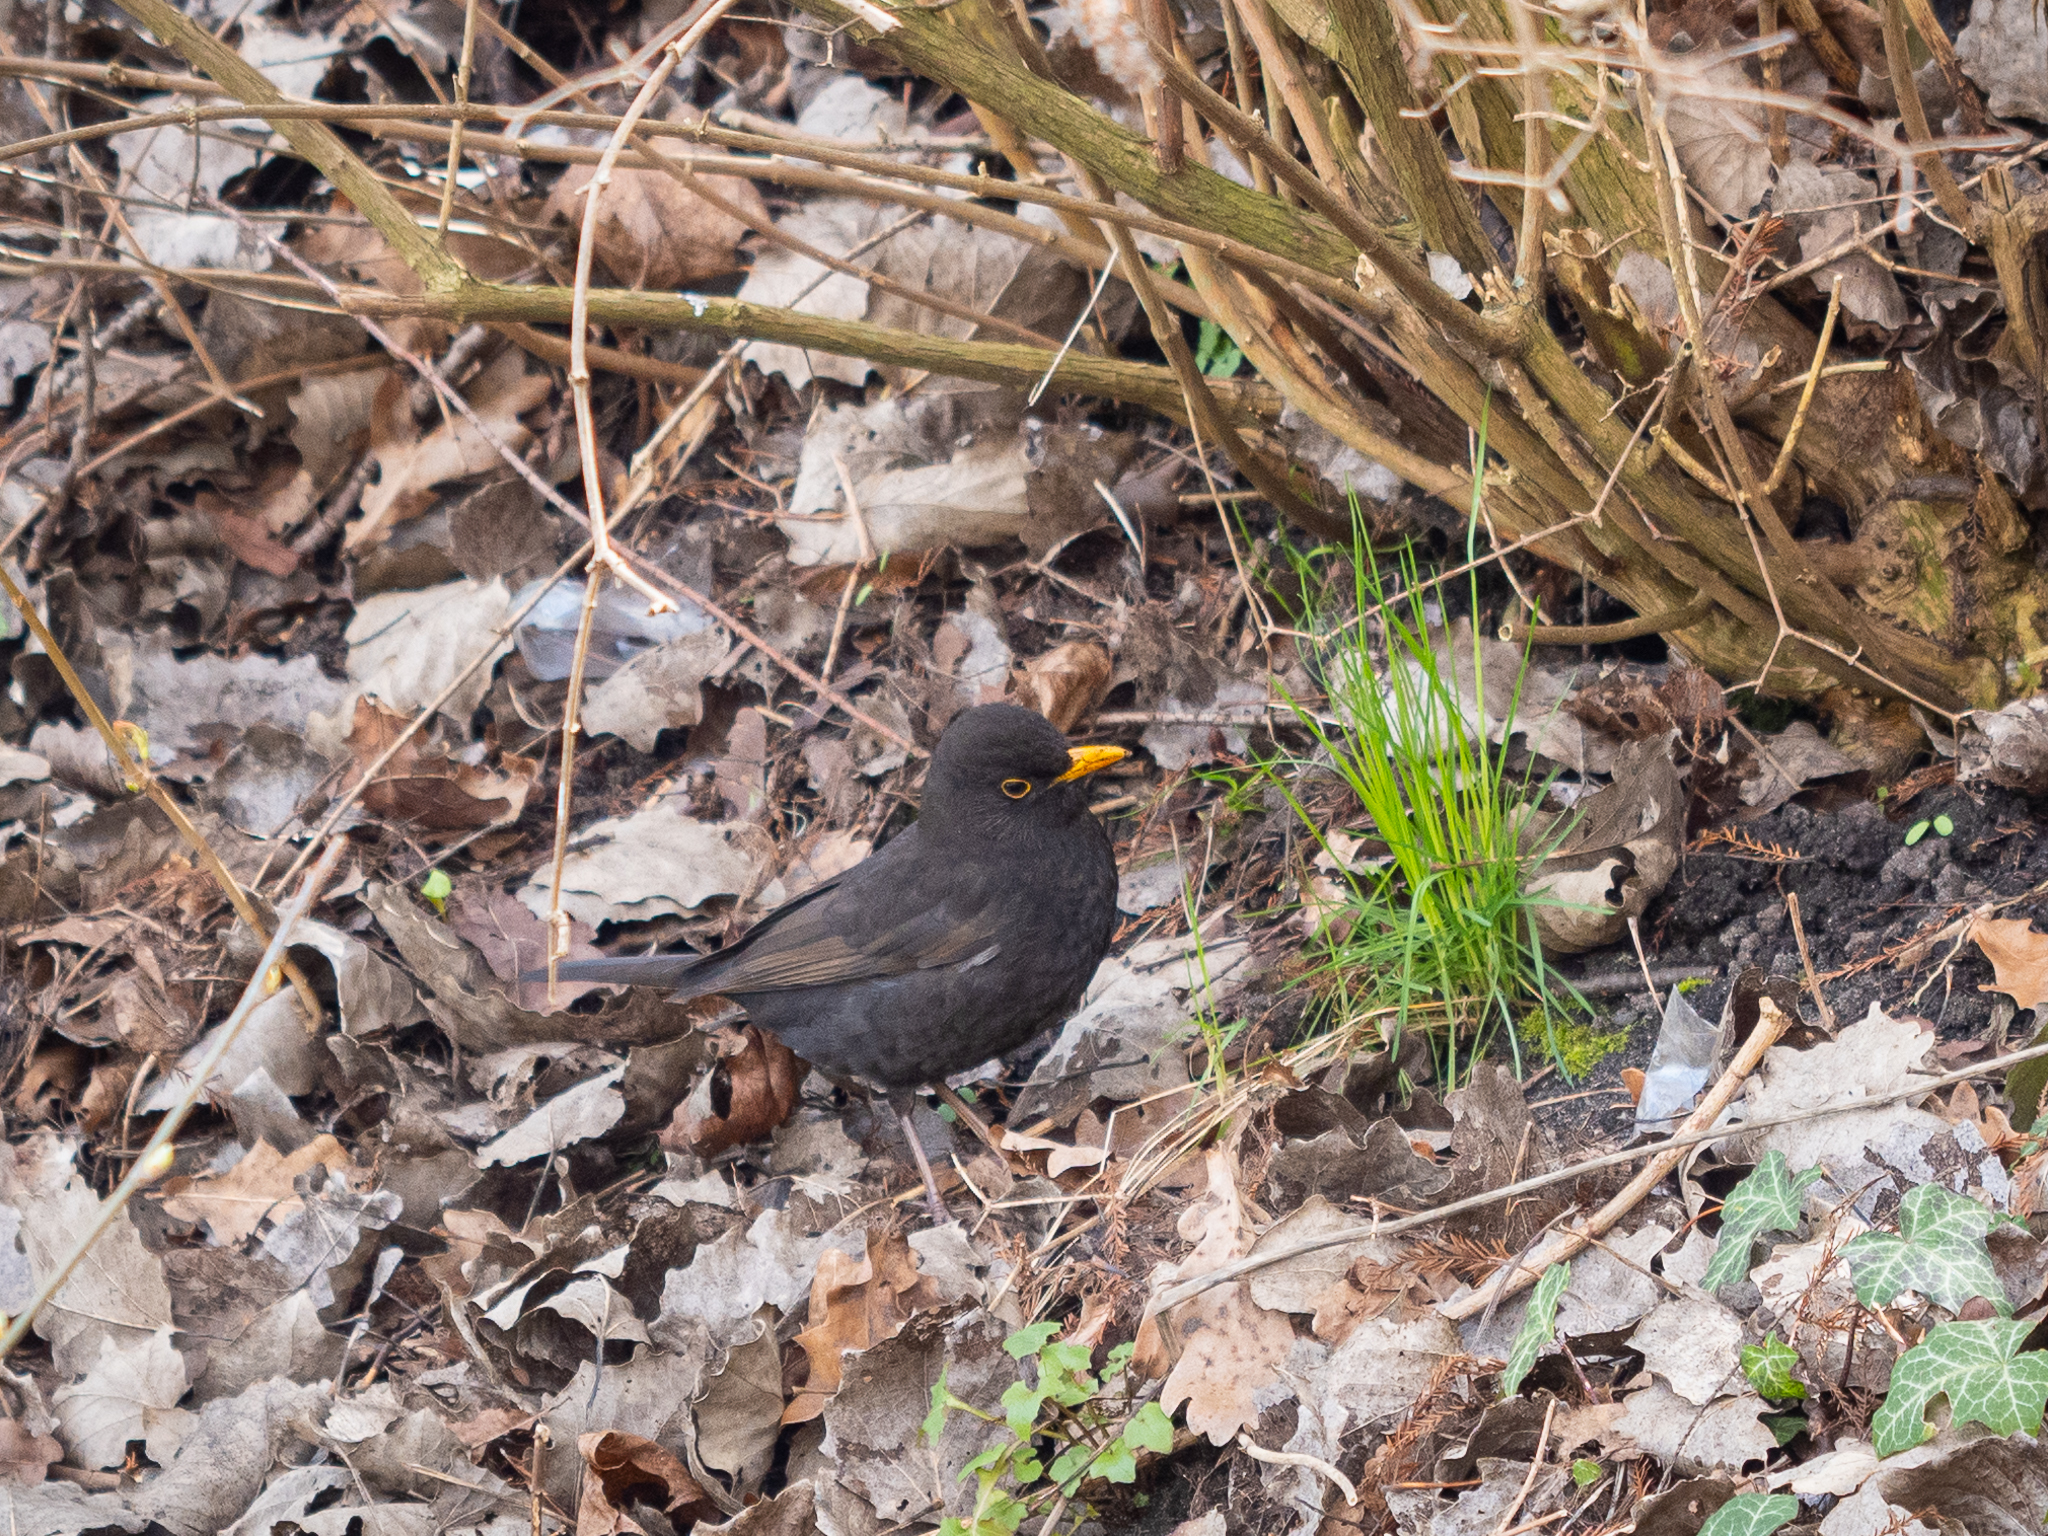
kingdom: Animalia
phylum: Chordata
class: Aves
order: Passeriformes
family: Turdidae
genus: Turdus
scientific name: Turdus merula
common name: Common blackbird
